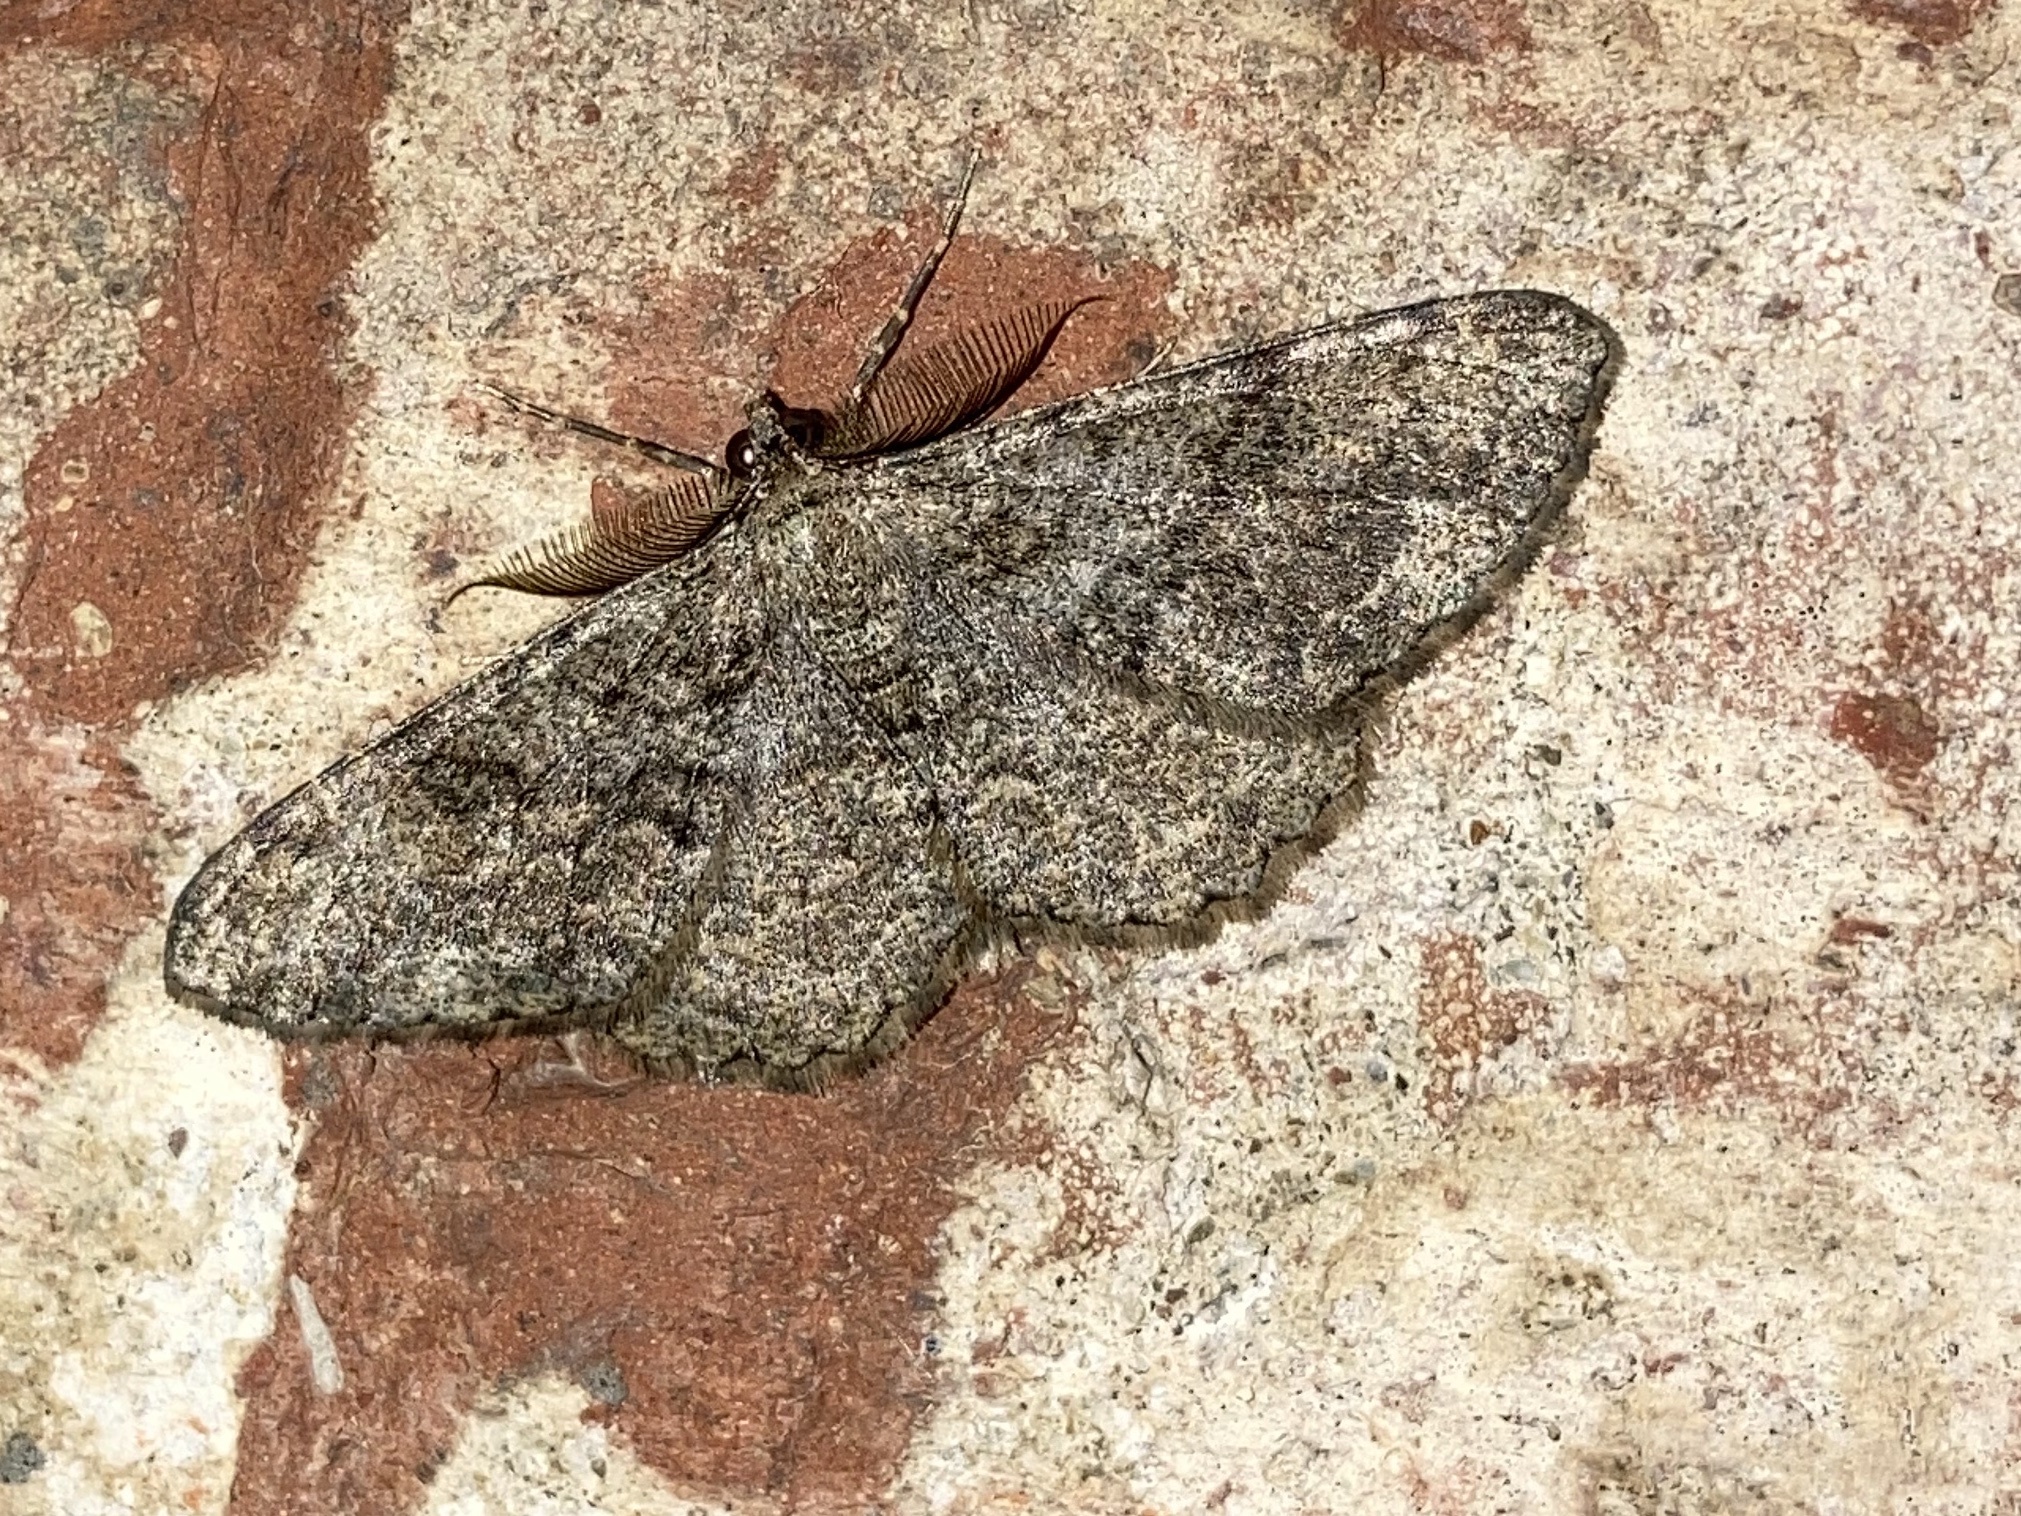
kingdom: Animalia
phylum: Arthropoda
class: Insecta
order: Lepidoptera
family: Geometridae
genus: Peribatodes
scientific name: Peribatodes secundaria
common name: Feathered beauty
